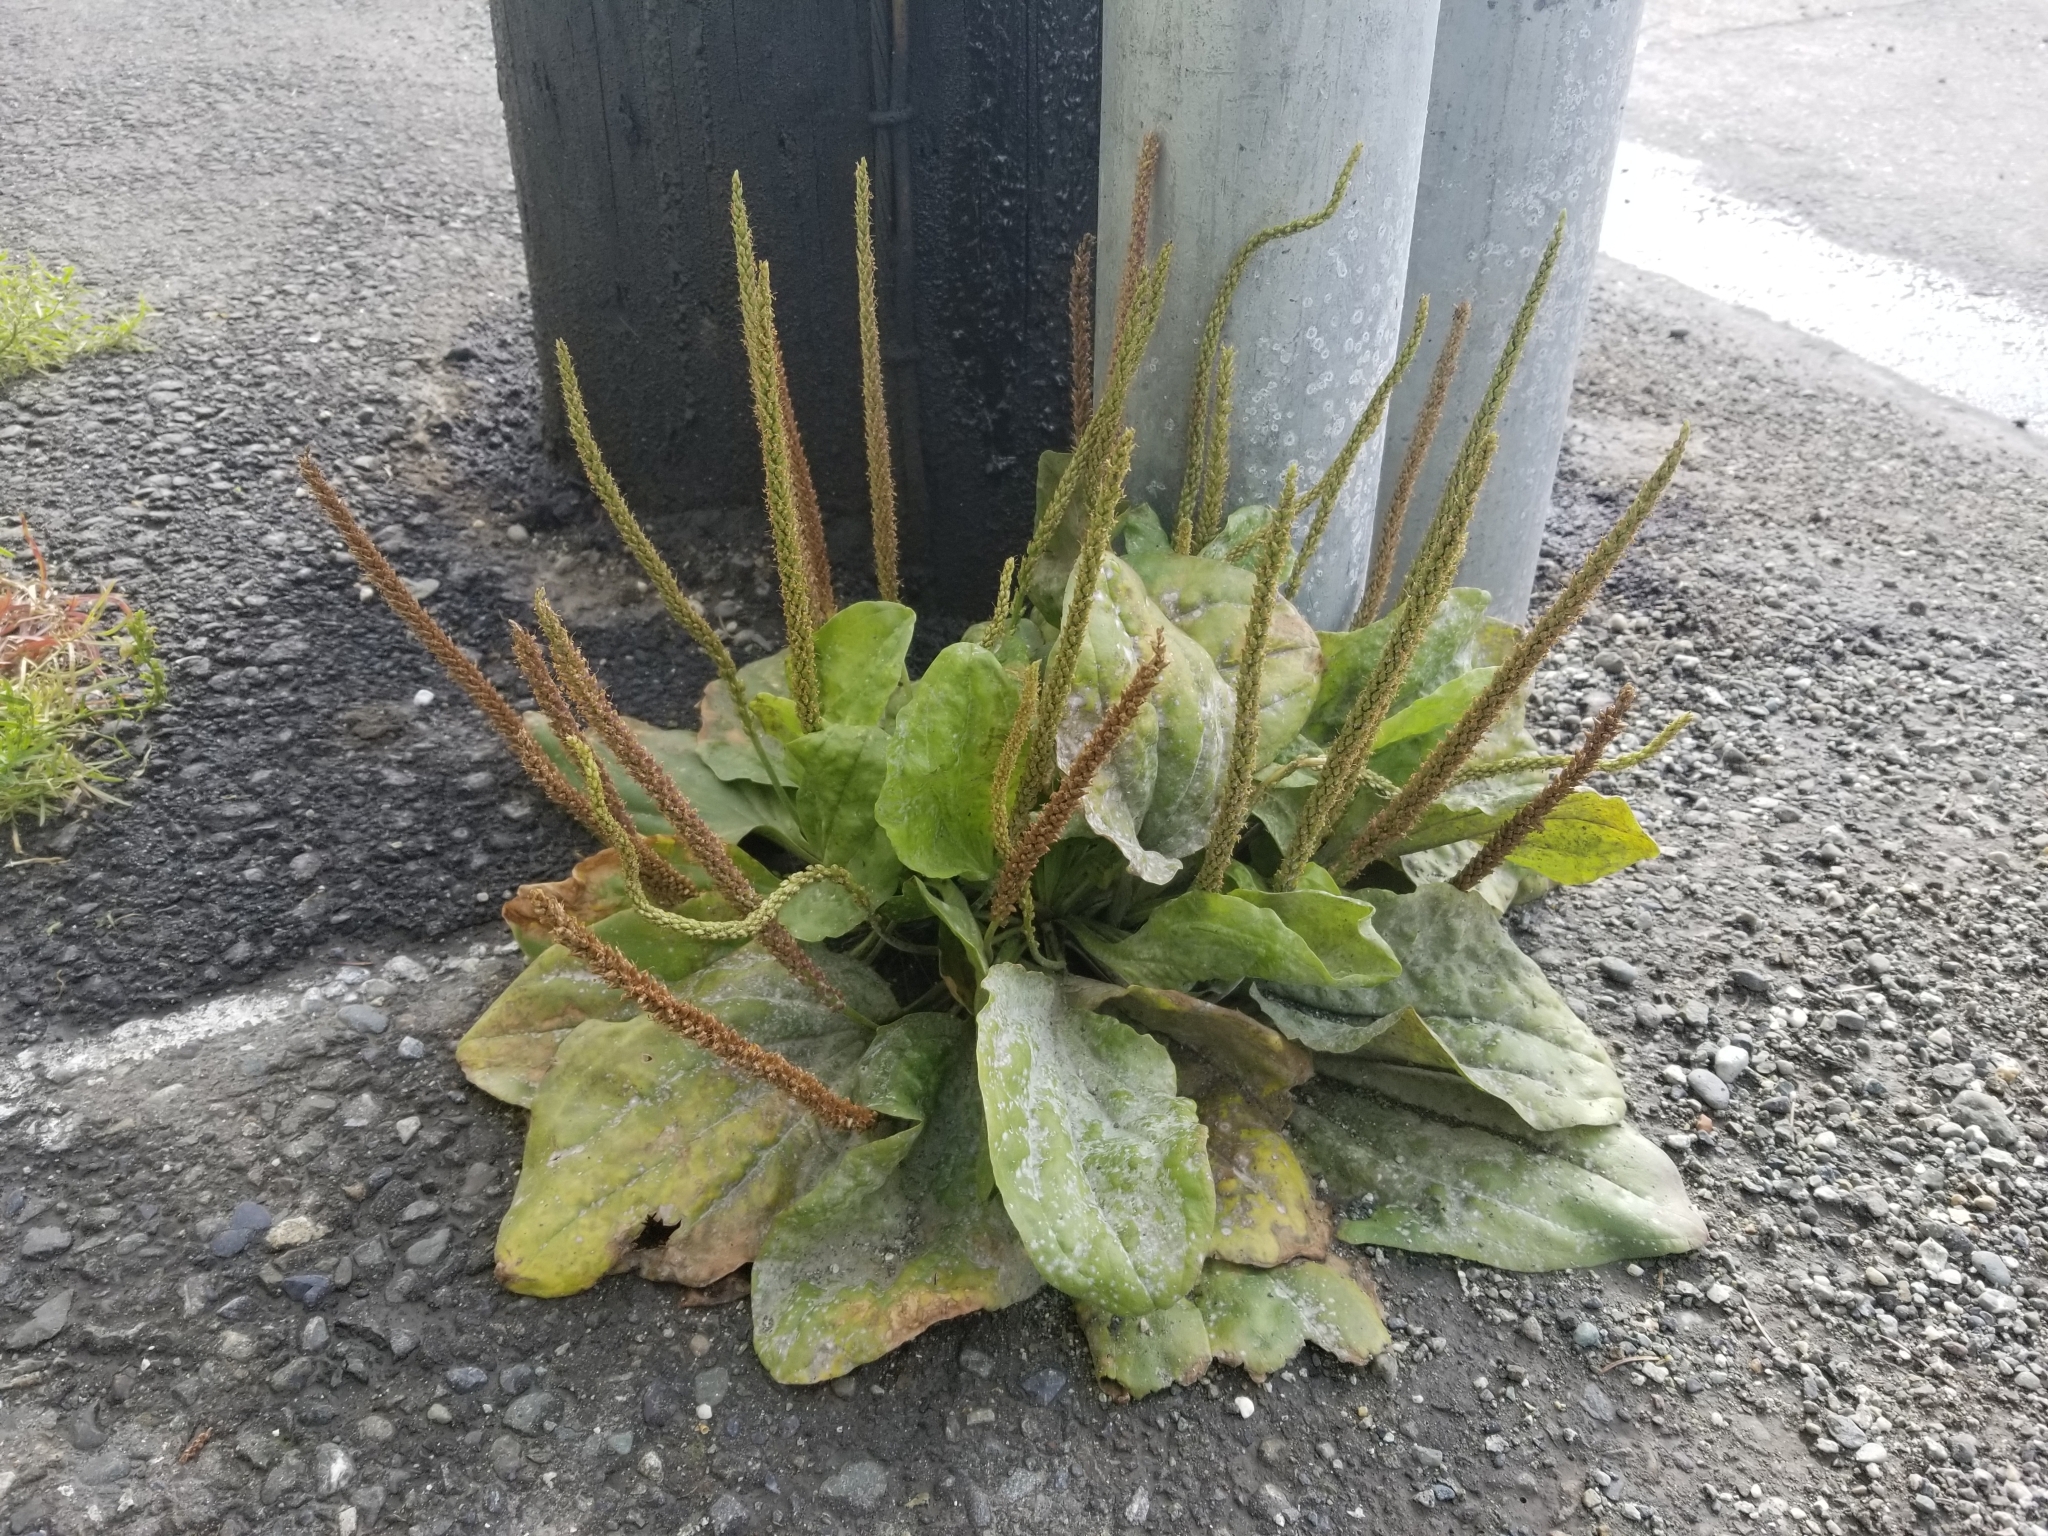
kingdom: Plantae
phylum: Tracheophyta
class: Magnoliopsida
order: Lamiales
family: Plantaginaceae
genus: Plantago
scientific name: Plantago major
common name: Common plantain
